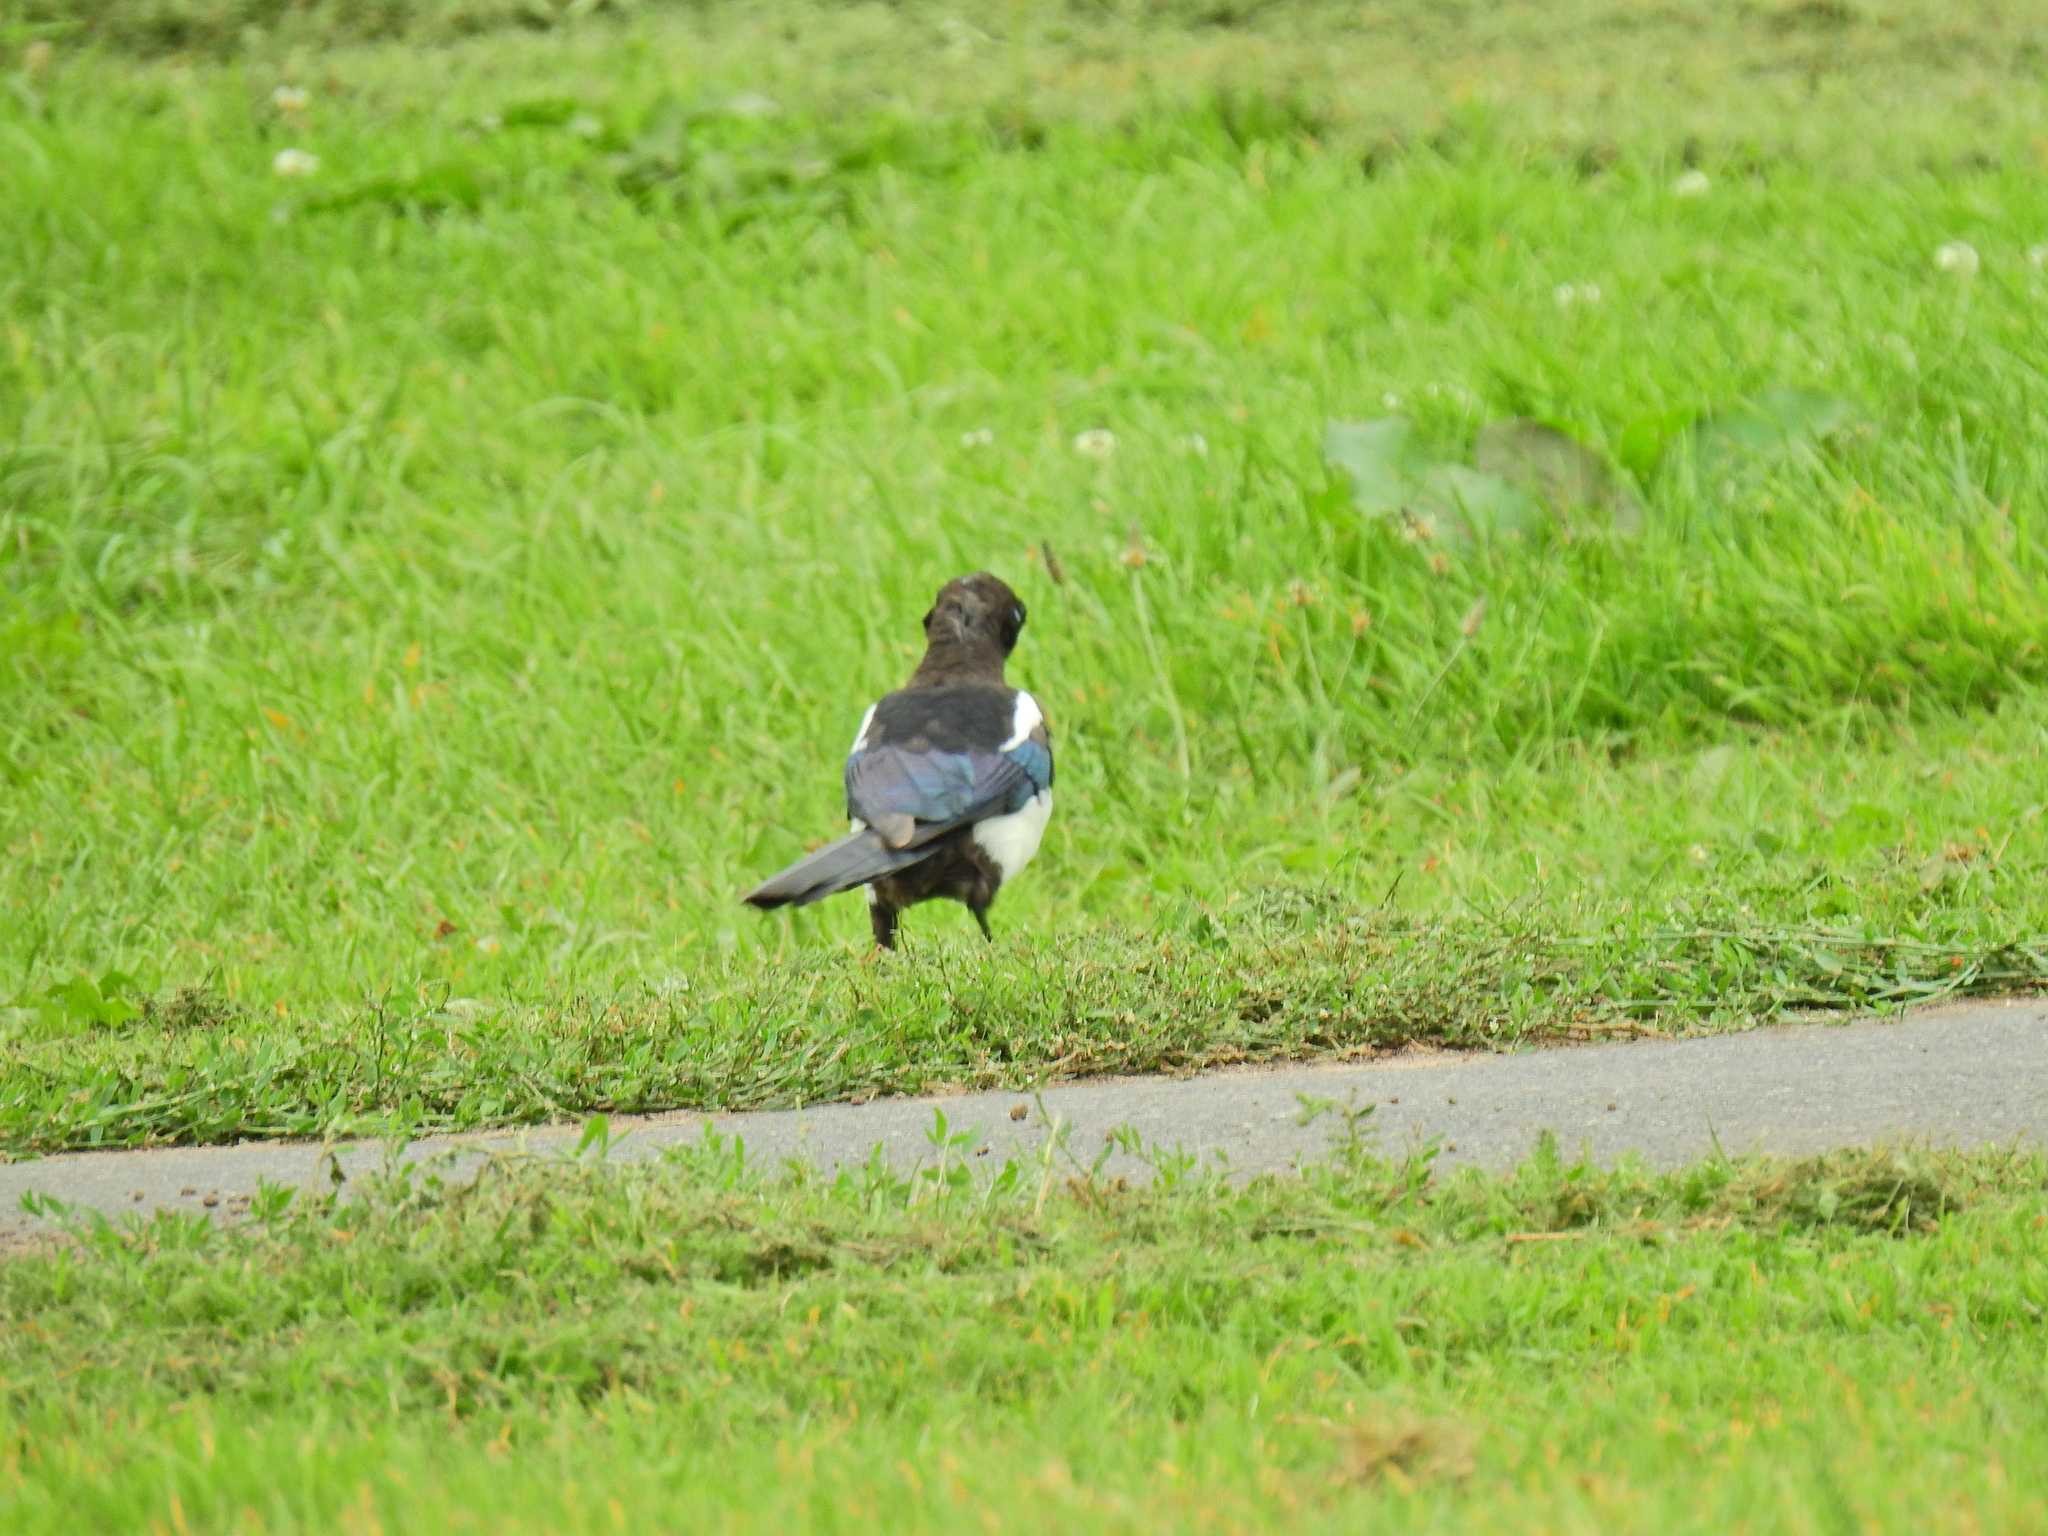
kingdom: Animalia
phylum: Chordata
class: Aves
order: Passeriformes
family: Corvidae
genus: Pica
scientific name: Pica pica
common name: Eurasian magpie
